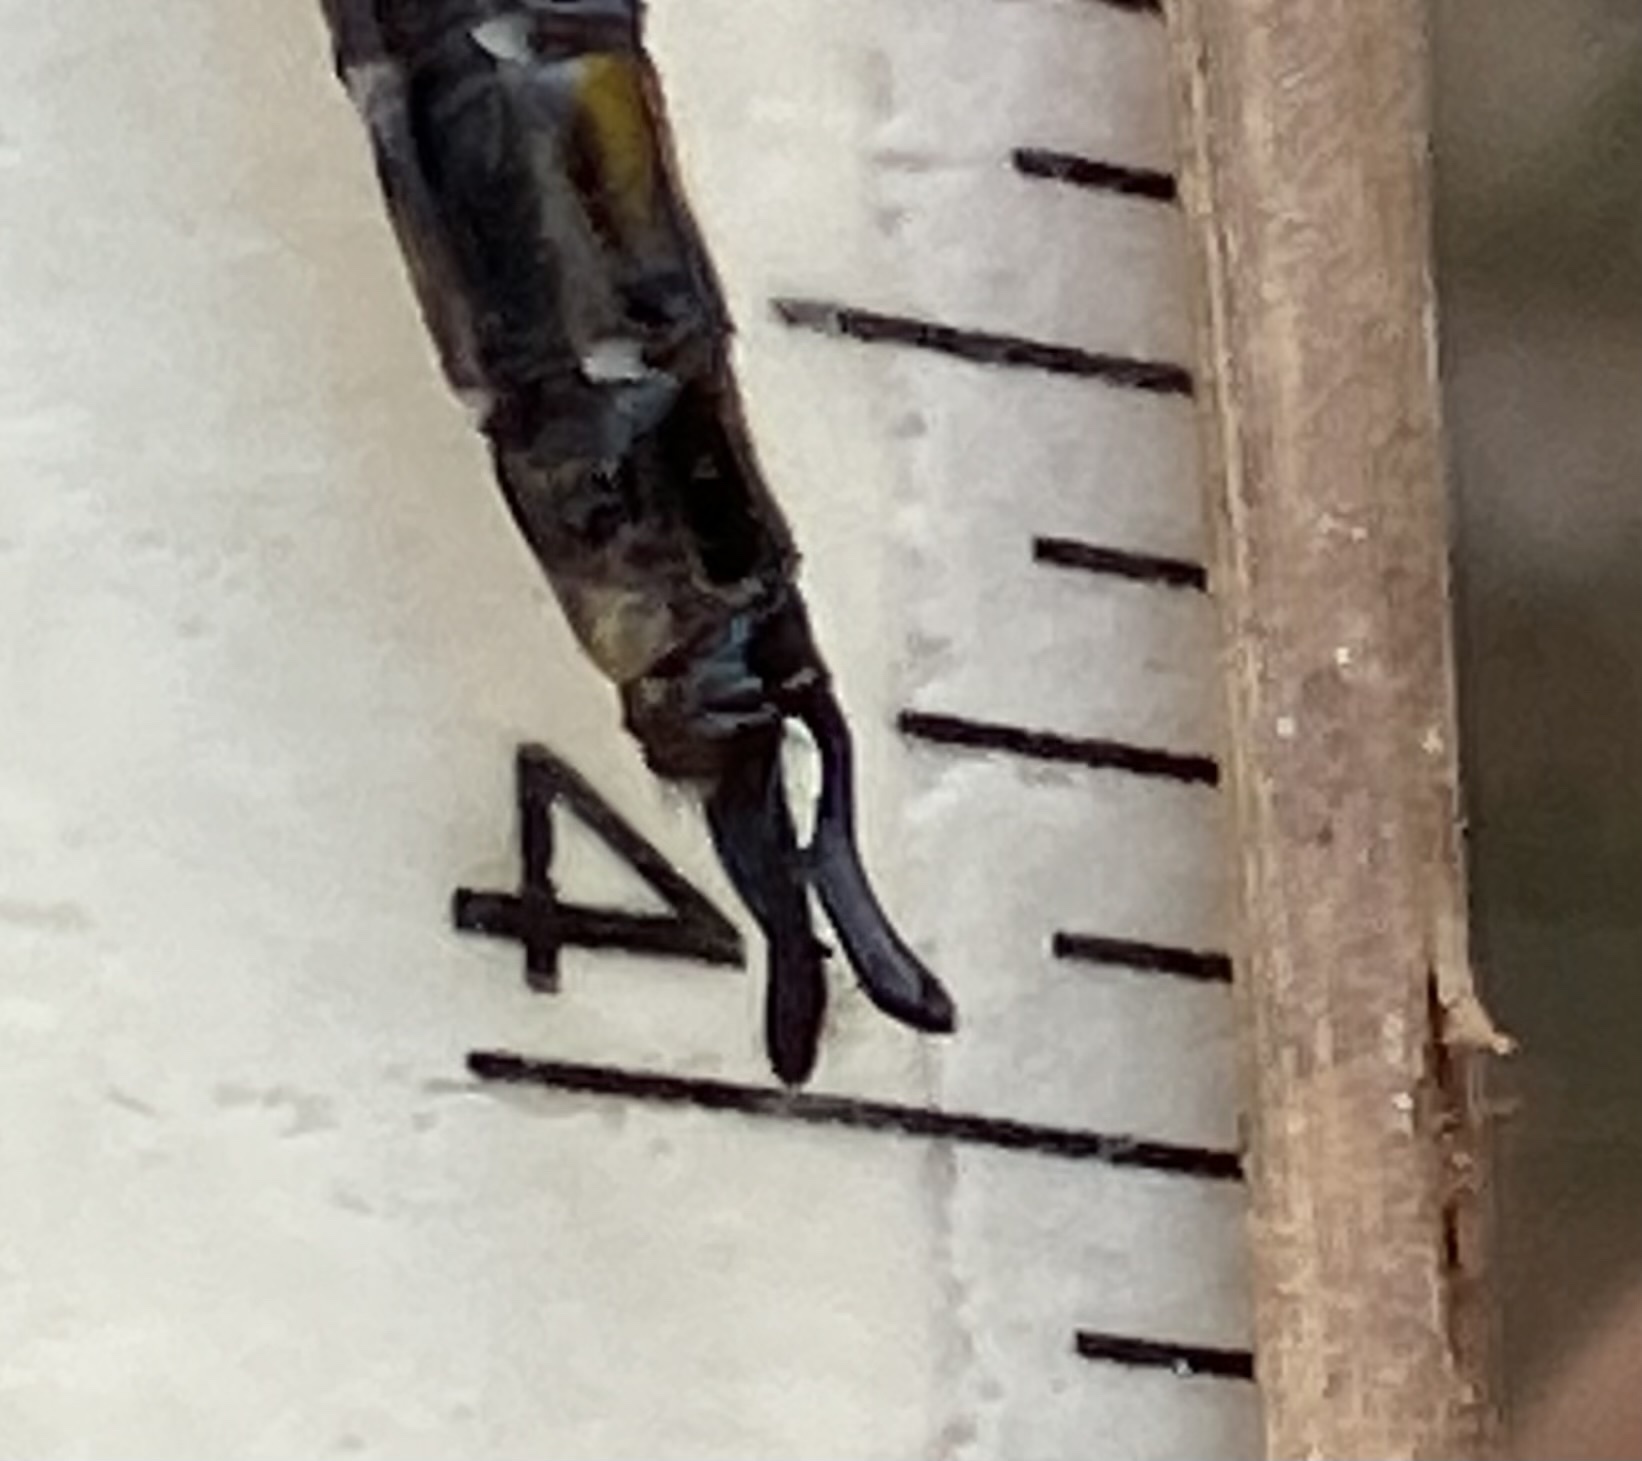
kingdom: Animalia
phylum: Arthropoda
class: Insecta
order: Odonata
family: Corduliidae
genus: Epitheca
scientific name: Epitheca cynosura
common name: Common baskettail
